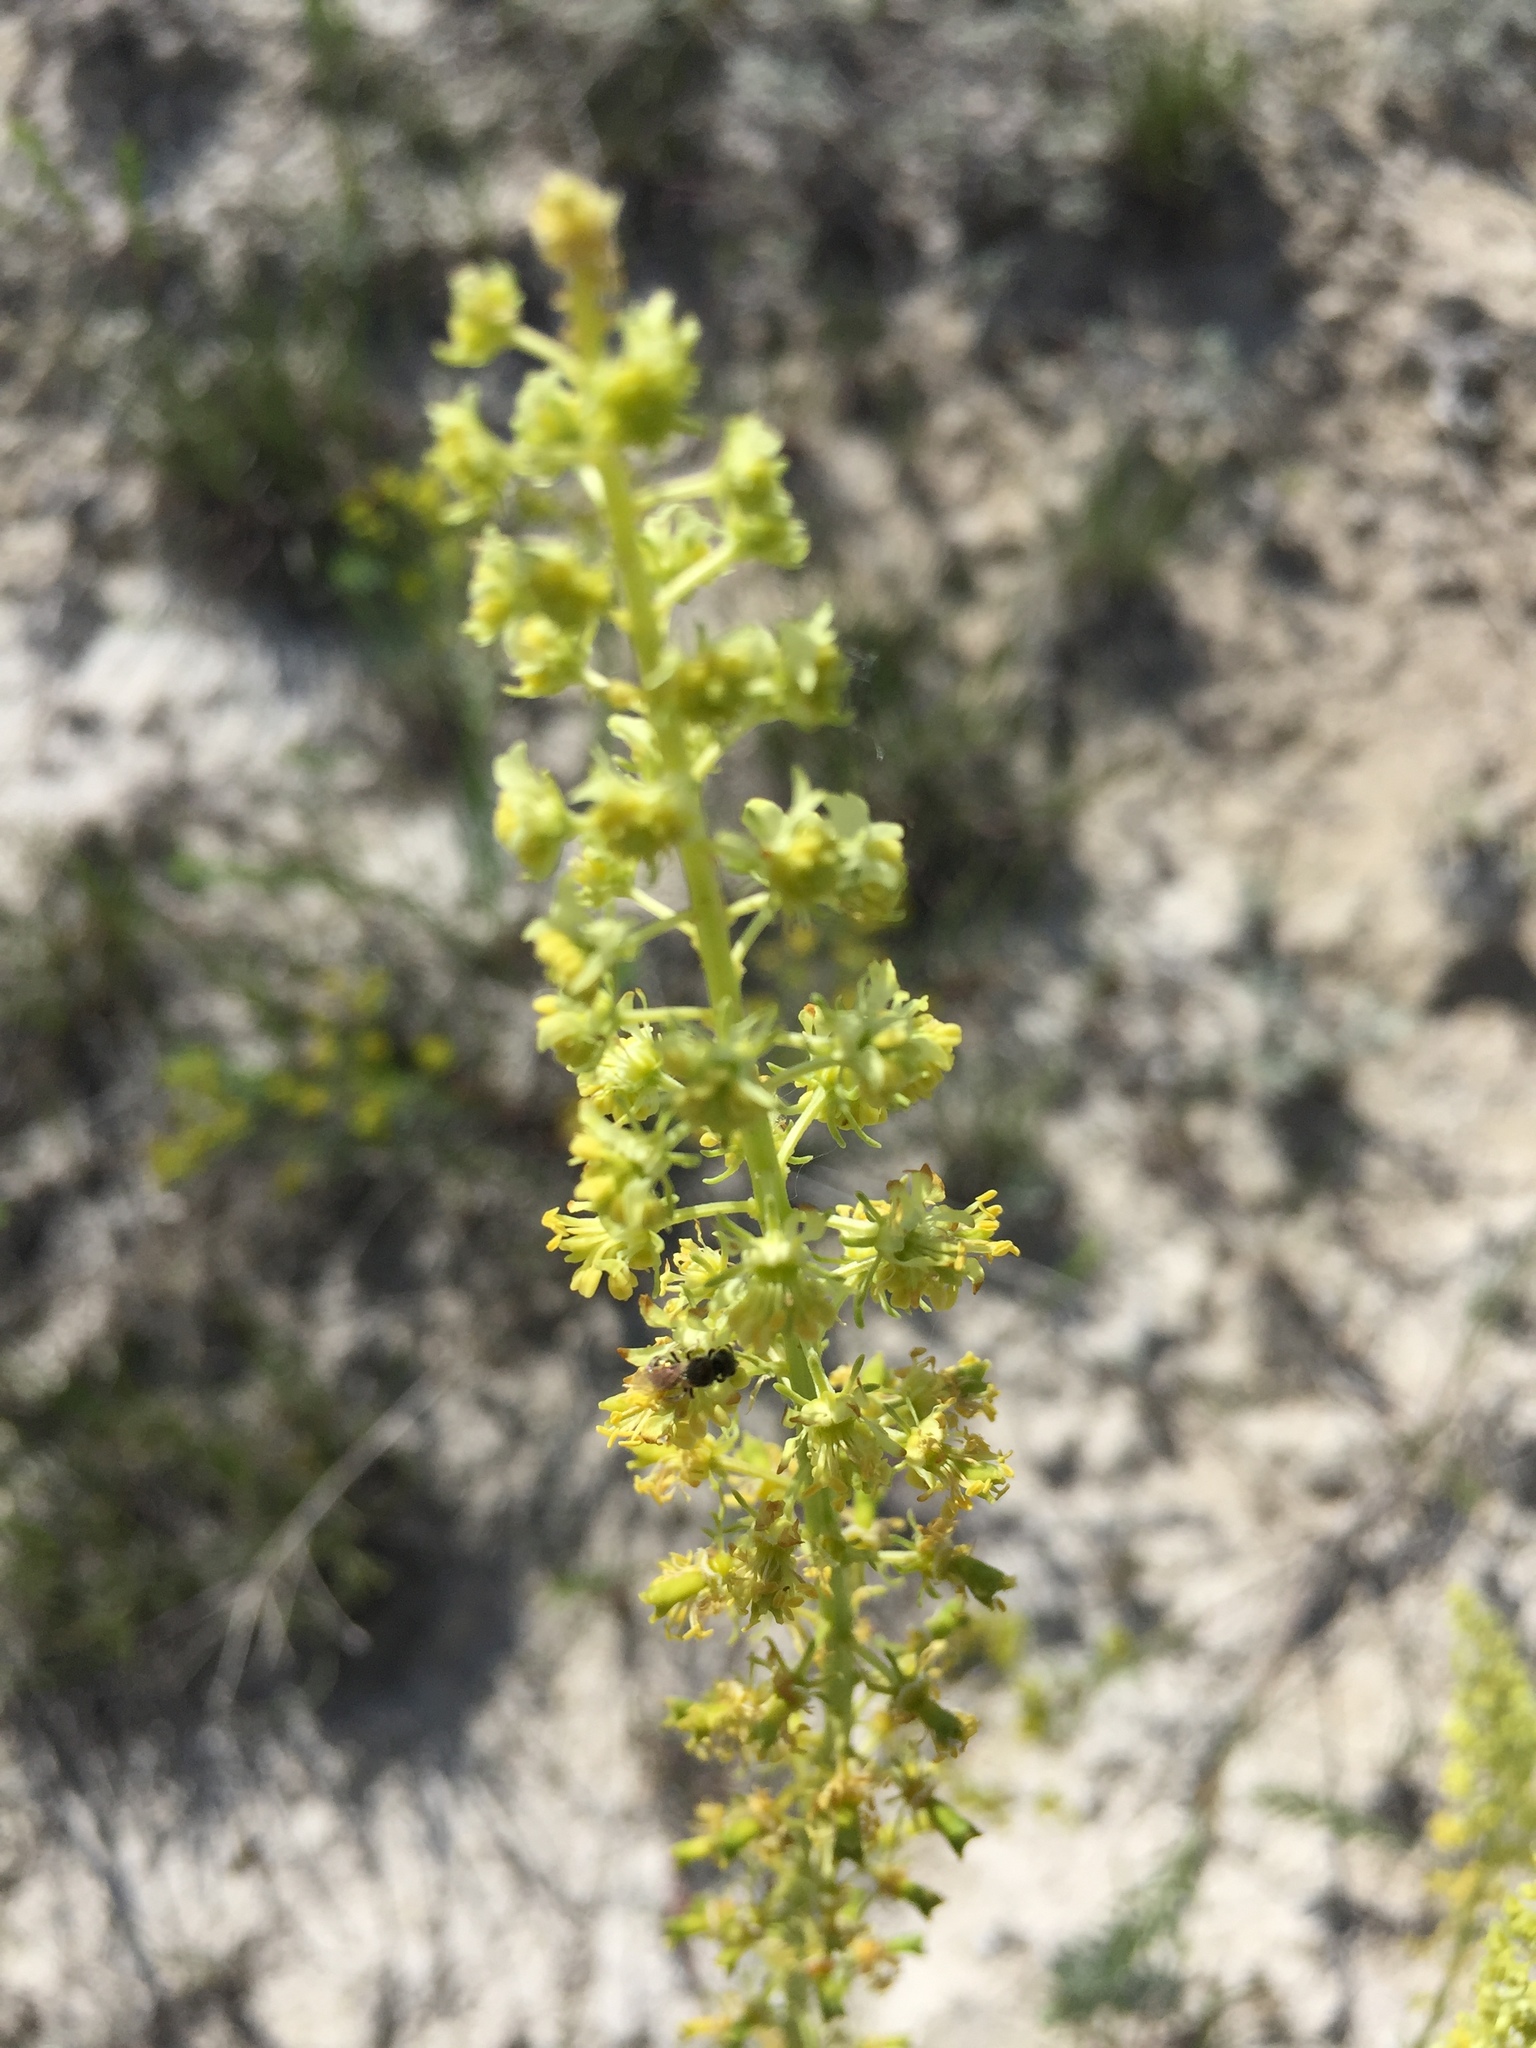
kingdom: Plantae
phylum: Tracheophyta
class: Magnoliopsida
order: Brassicales
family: Resedaceae
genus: Reseda
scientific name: Reseda lutea
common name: Wild mignonette
